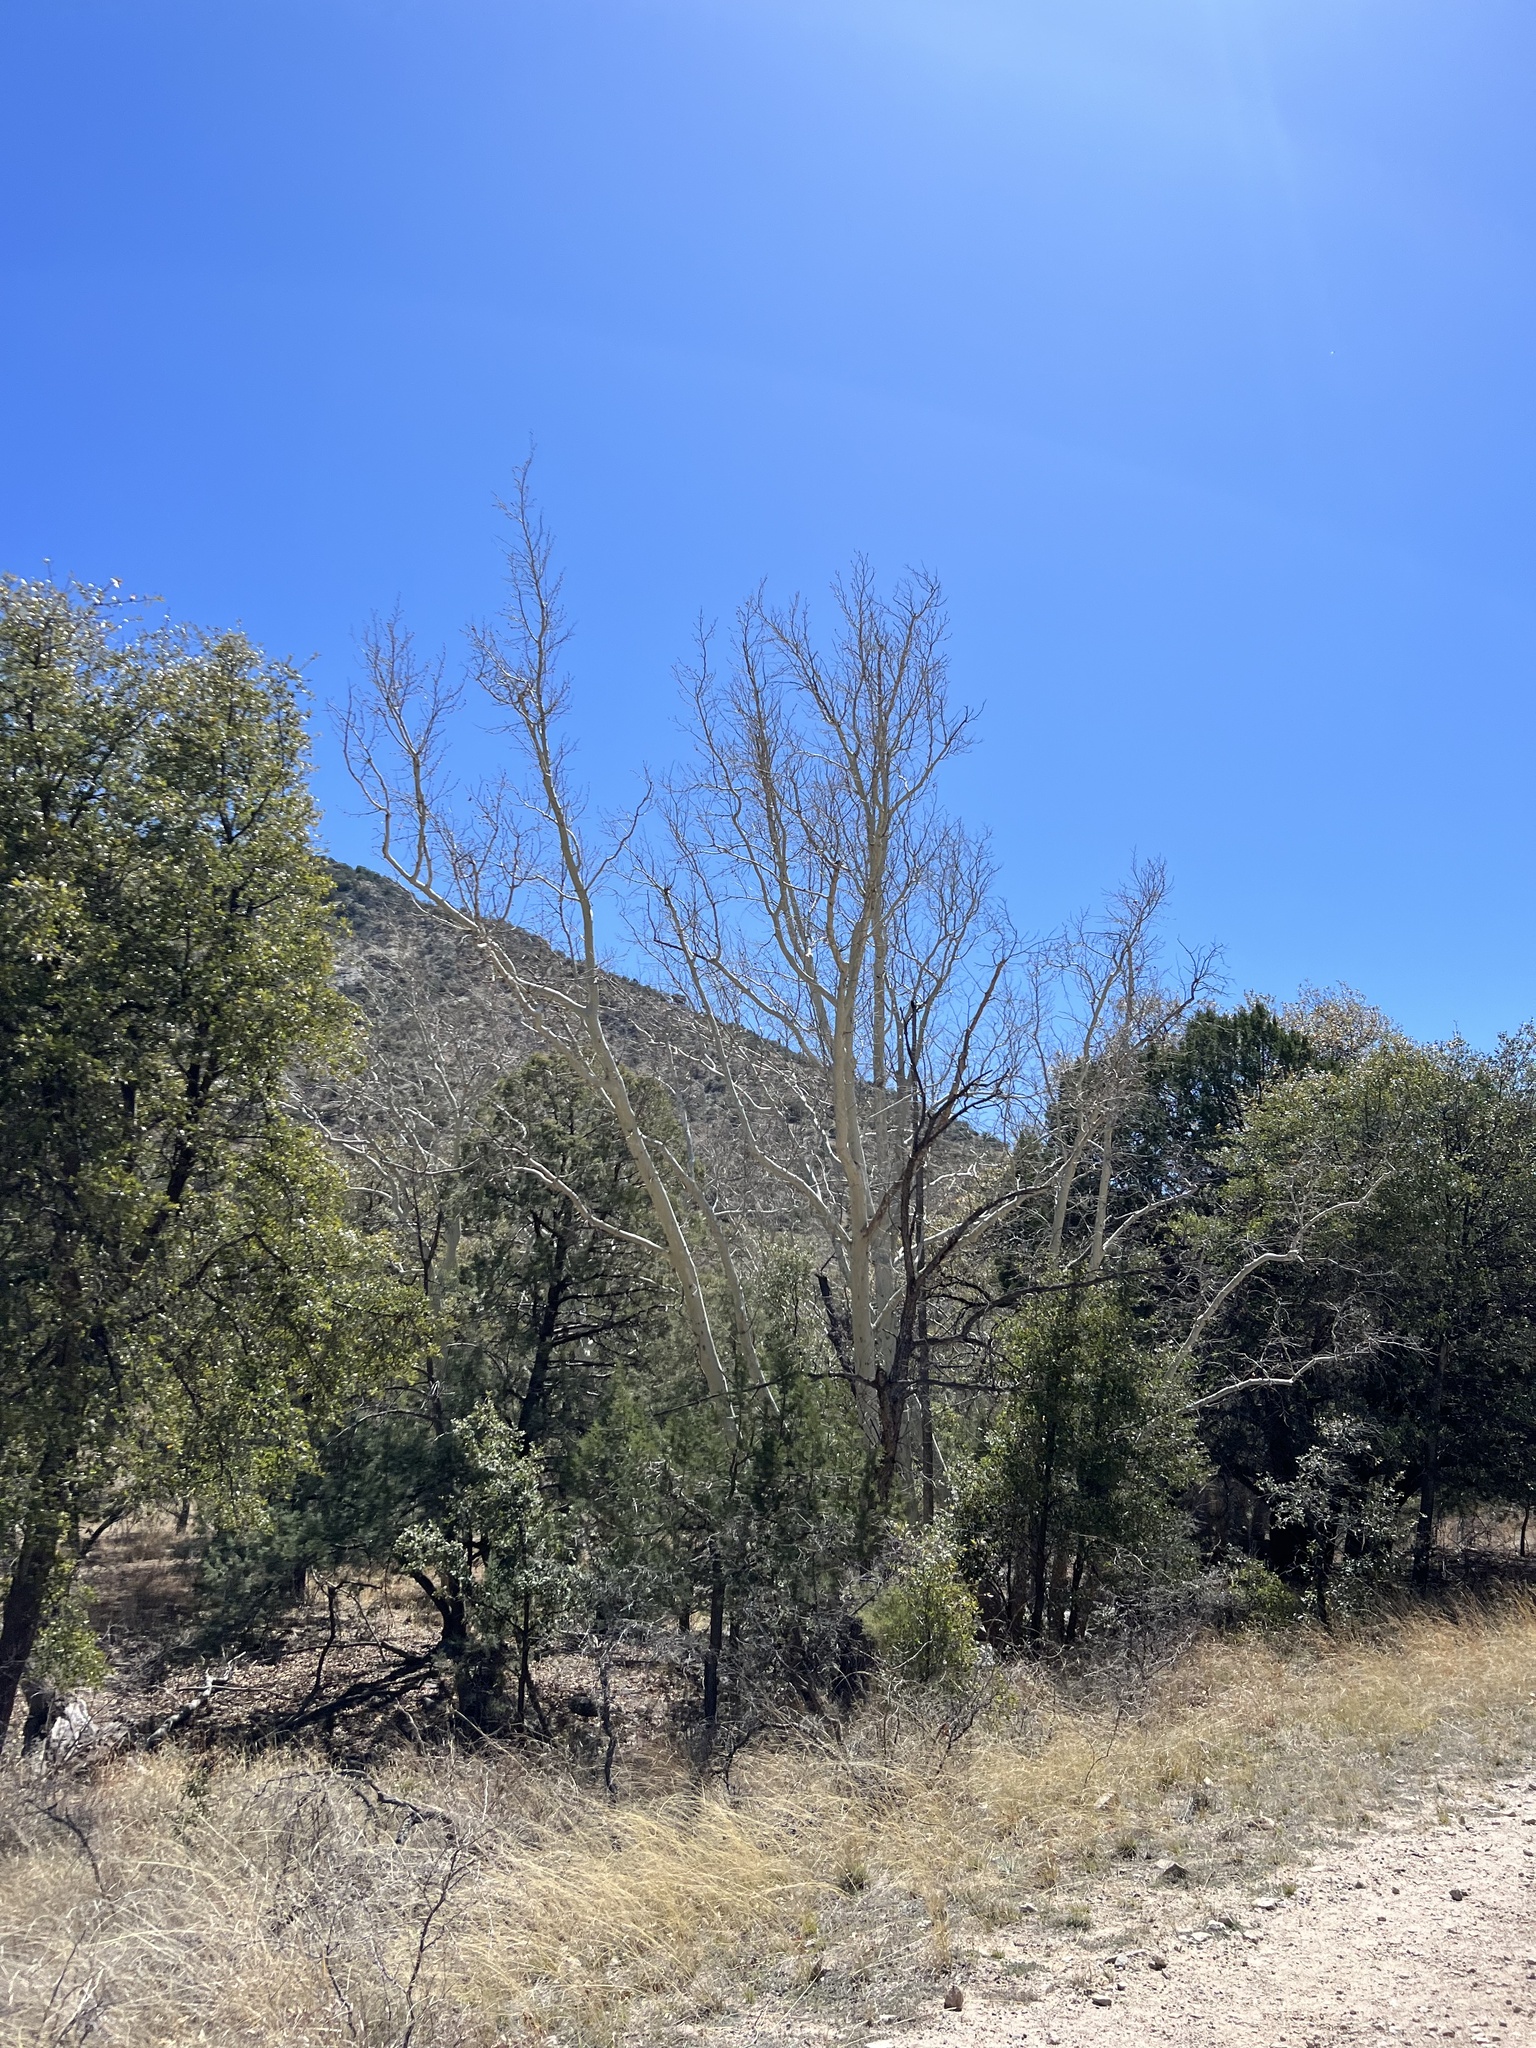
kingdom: Plantae
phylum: Tracheophyta
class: Magnoliopsida
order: Proteales
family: Platanaceae
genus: Platanus
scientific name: Platanus wrightii
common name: Arizona sycamore
